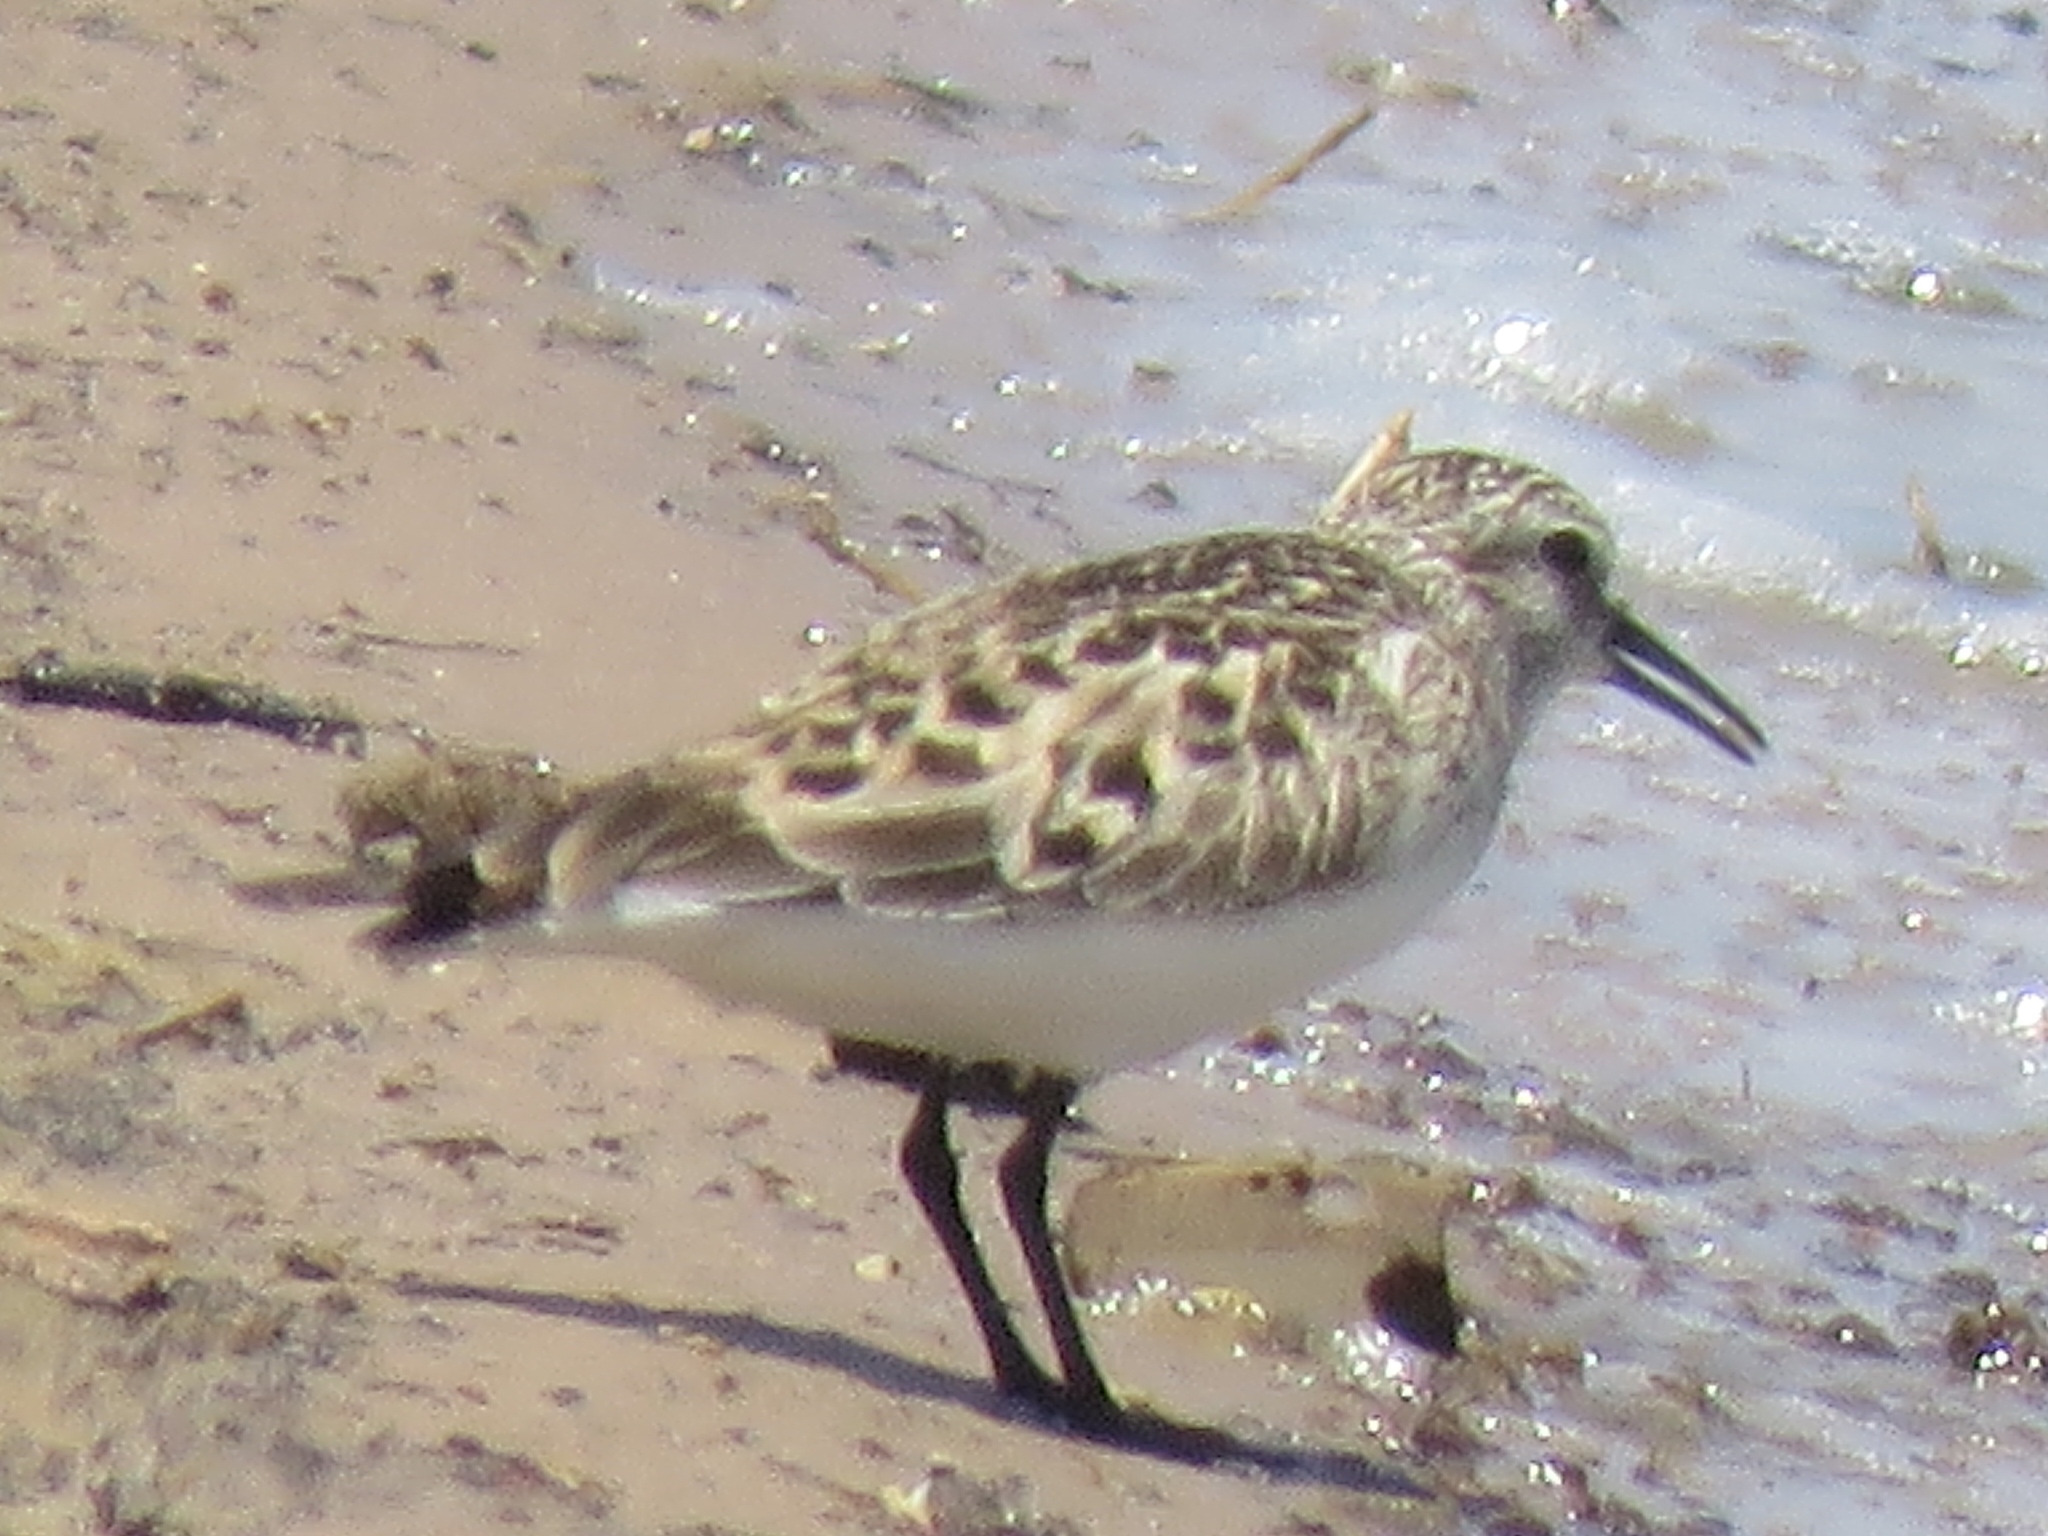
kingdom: Animalia
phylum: Chordata
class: Aves
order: Charadriiformes
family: Scolopacidae
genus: Calidris
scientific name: Calidris bairdii
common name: Baird's sandpiper
